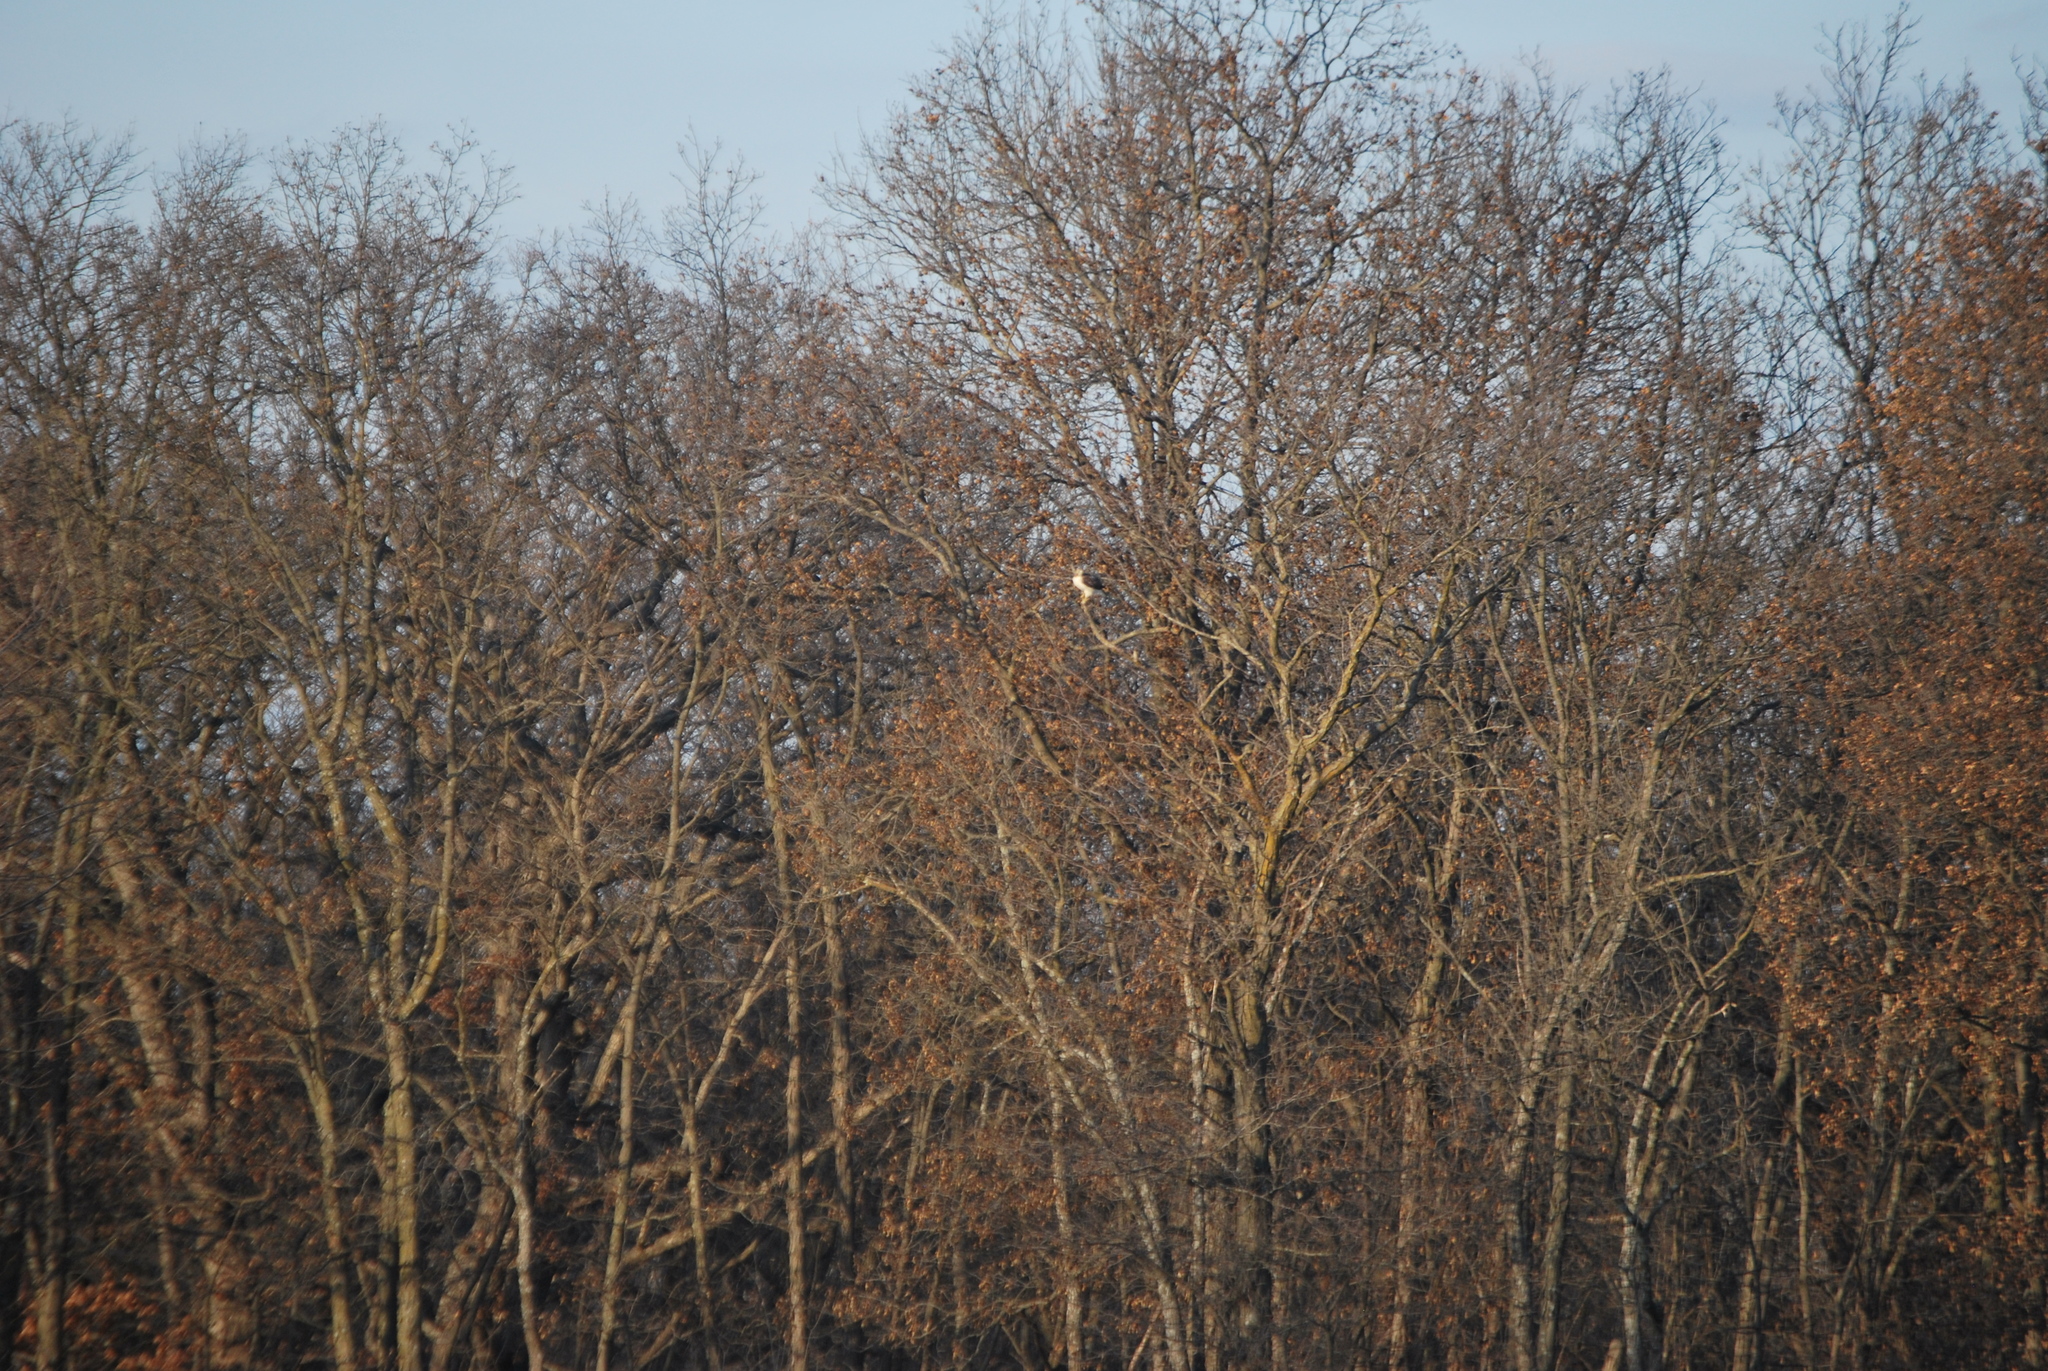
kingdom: Animalia
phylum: Chordata
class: Aves
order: Accipitriformes
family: Accipitridae
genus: Buteo
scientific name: Buteo jamaicensis
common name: Red-tailed hawk
